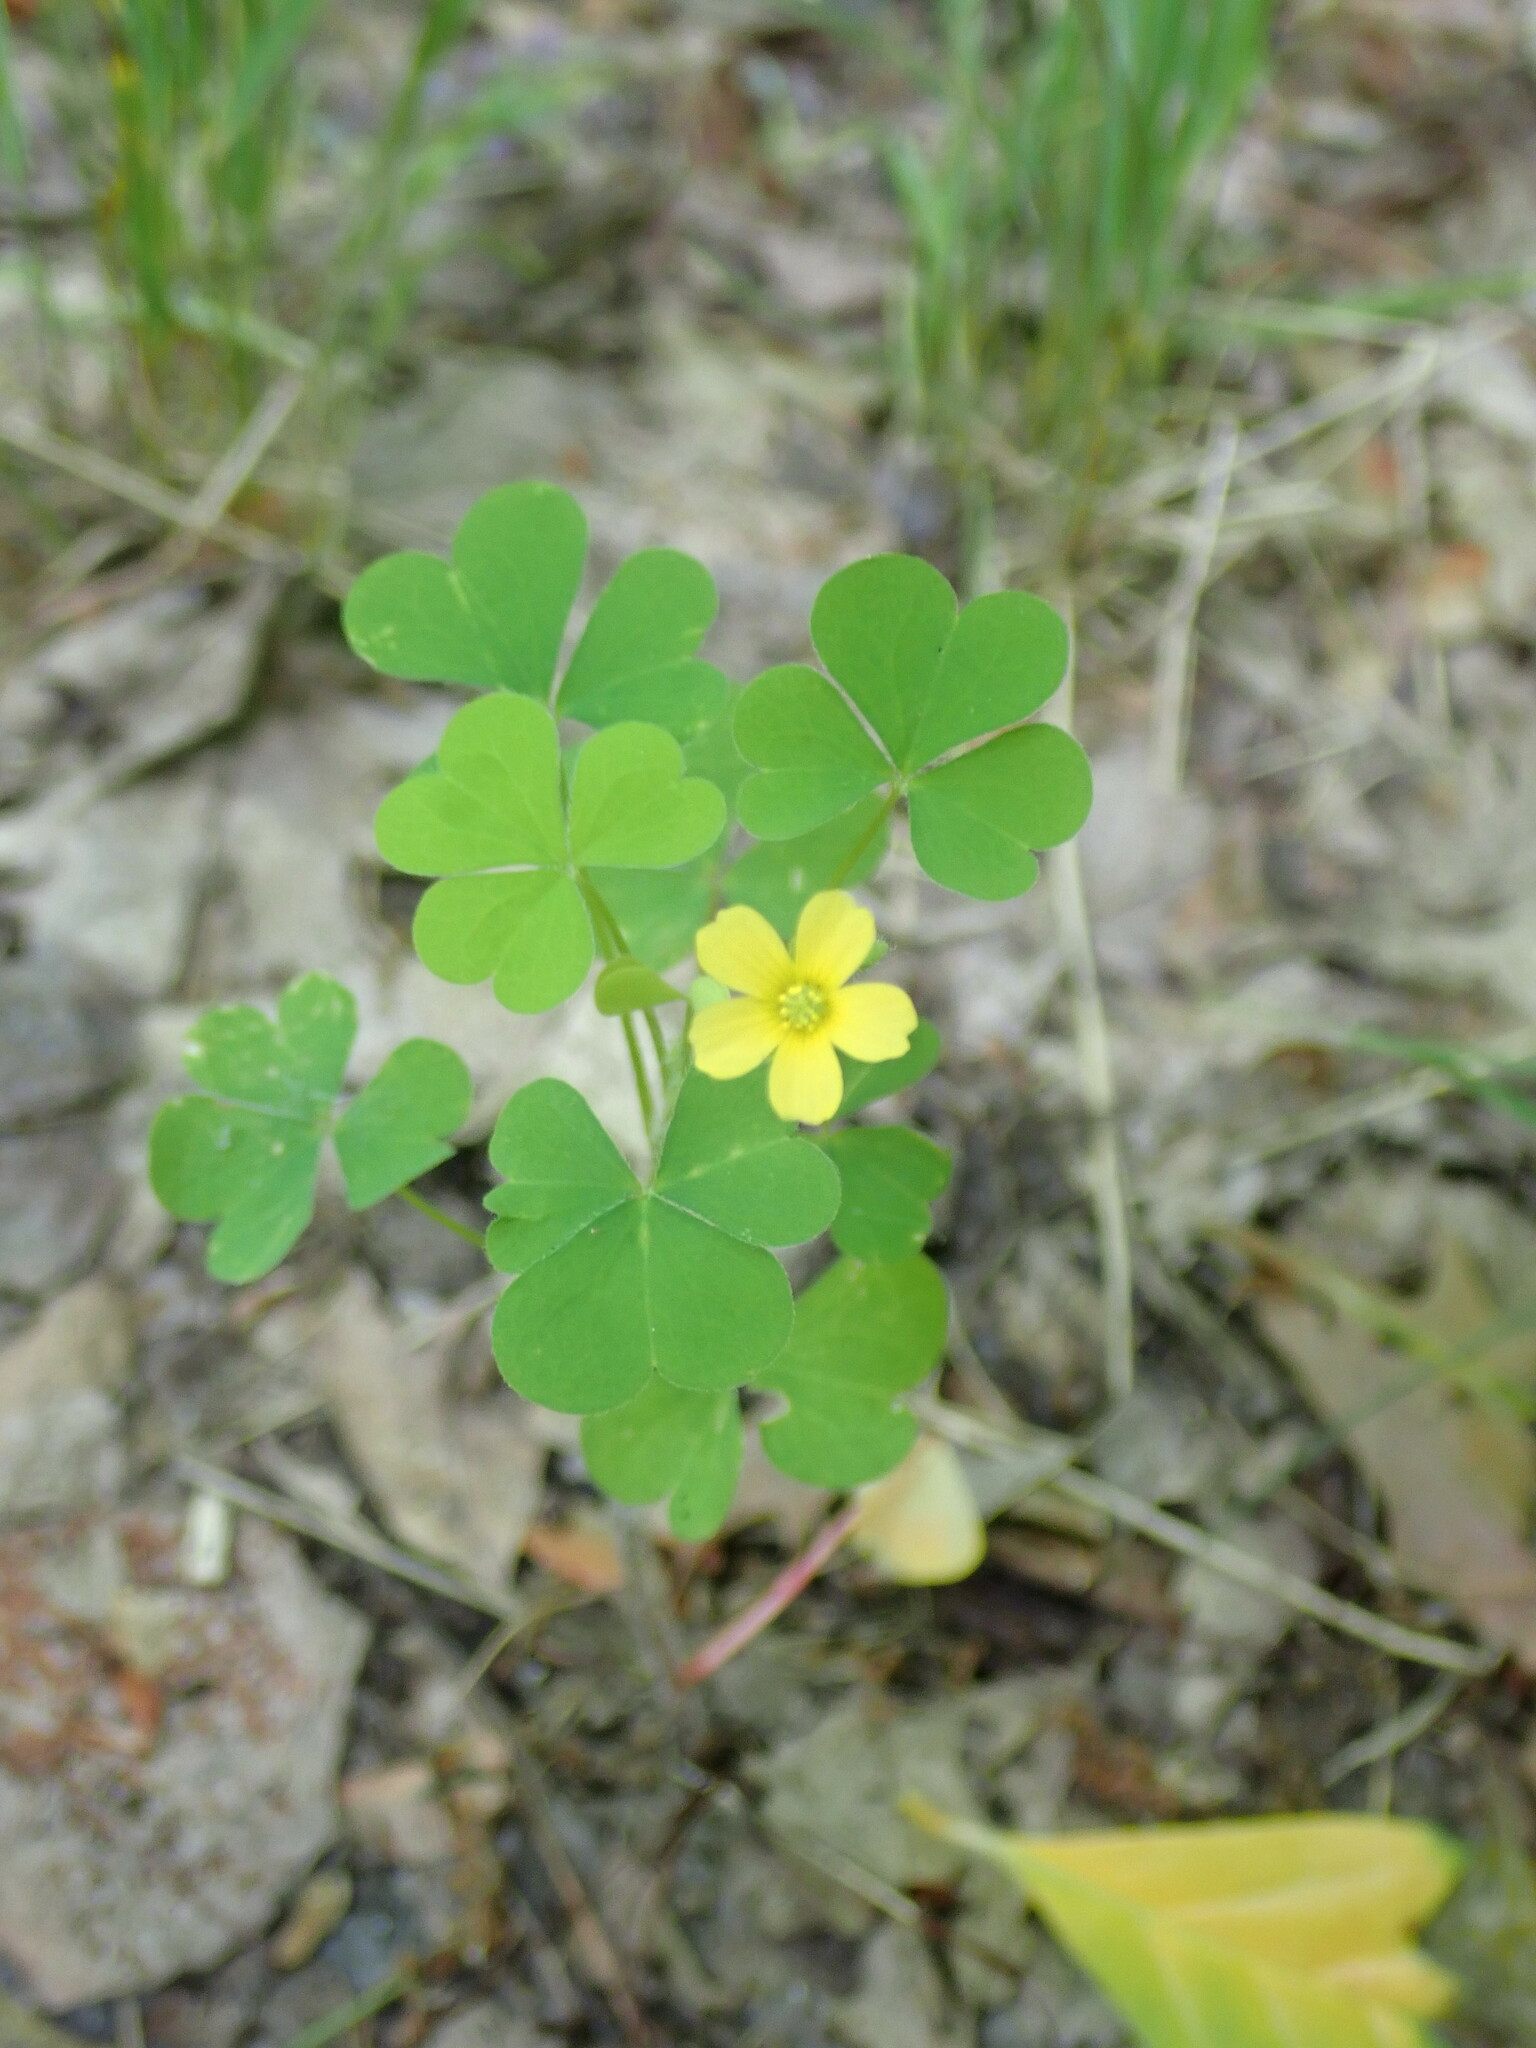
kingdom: Plantae
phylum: Tracheophyta
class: Magnoliopsida
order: Oxalidales
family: Oxalidaceae
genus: Oxalis
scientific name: Oxalis stricta
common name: Upright yellow-sorrel
